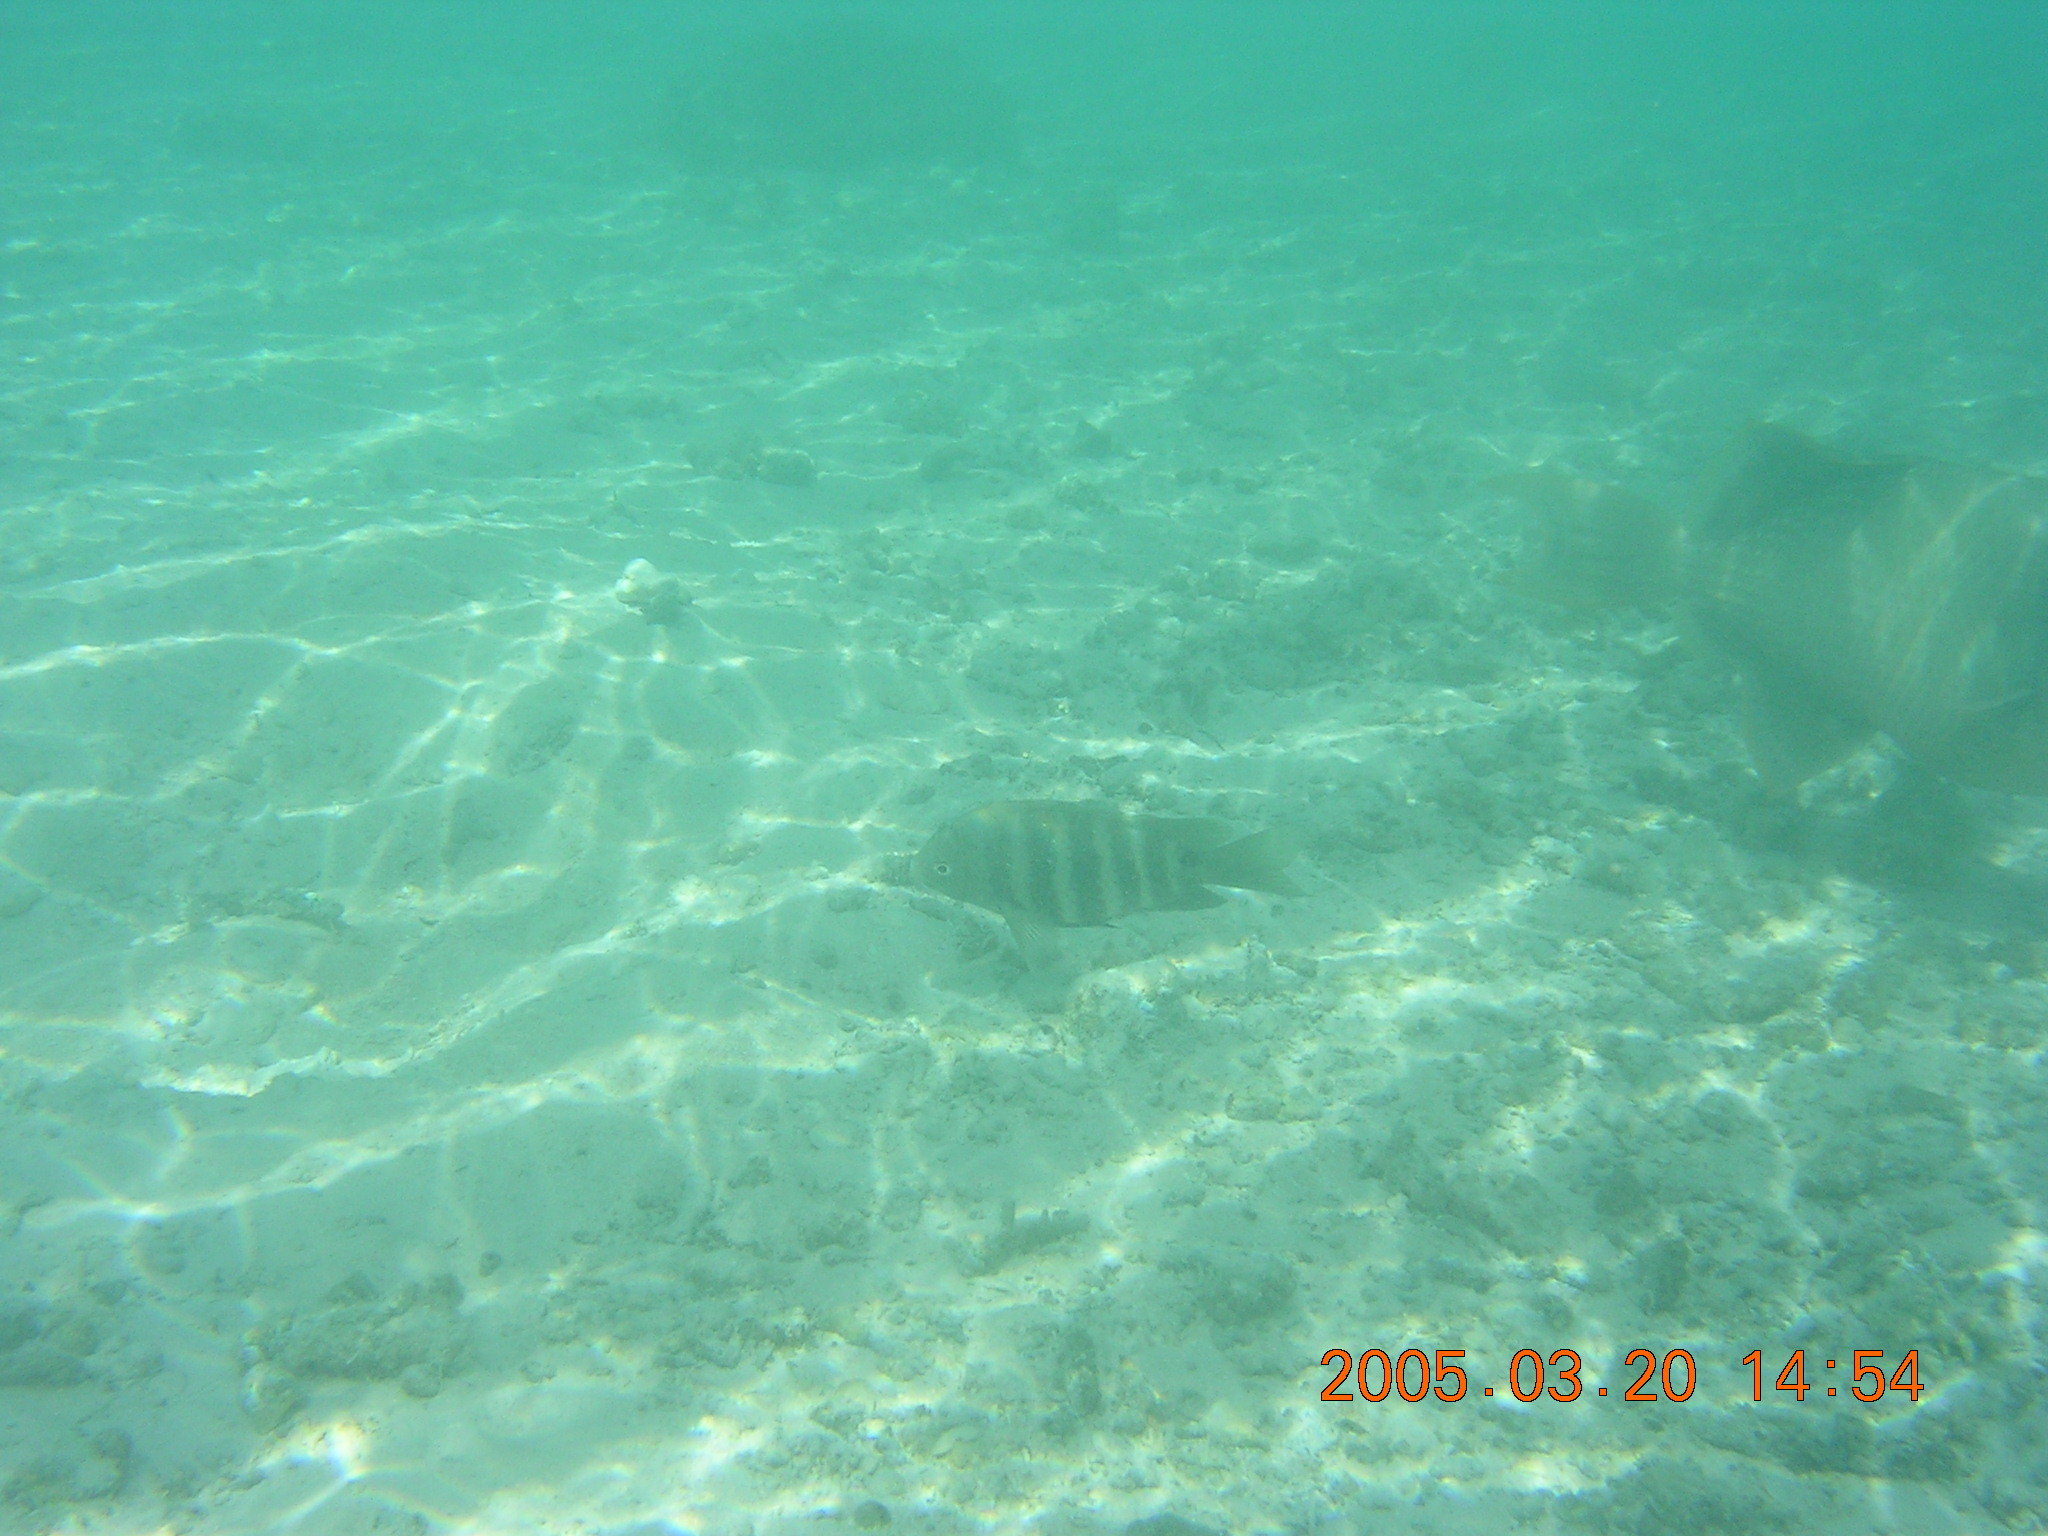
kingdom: Animalia
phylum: Chordata
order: Perciformes
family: Pomacentridae
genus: Abudefduf
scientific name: Abudefduf sordidus
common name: Blackspot sergeant
